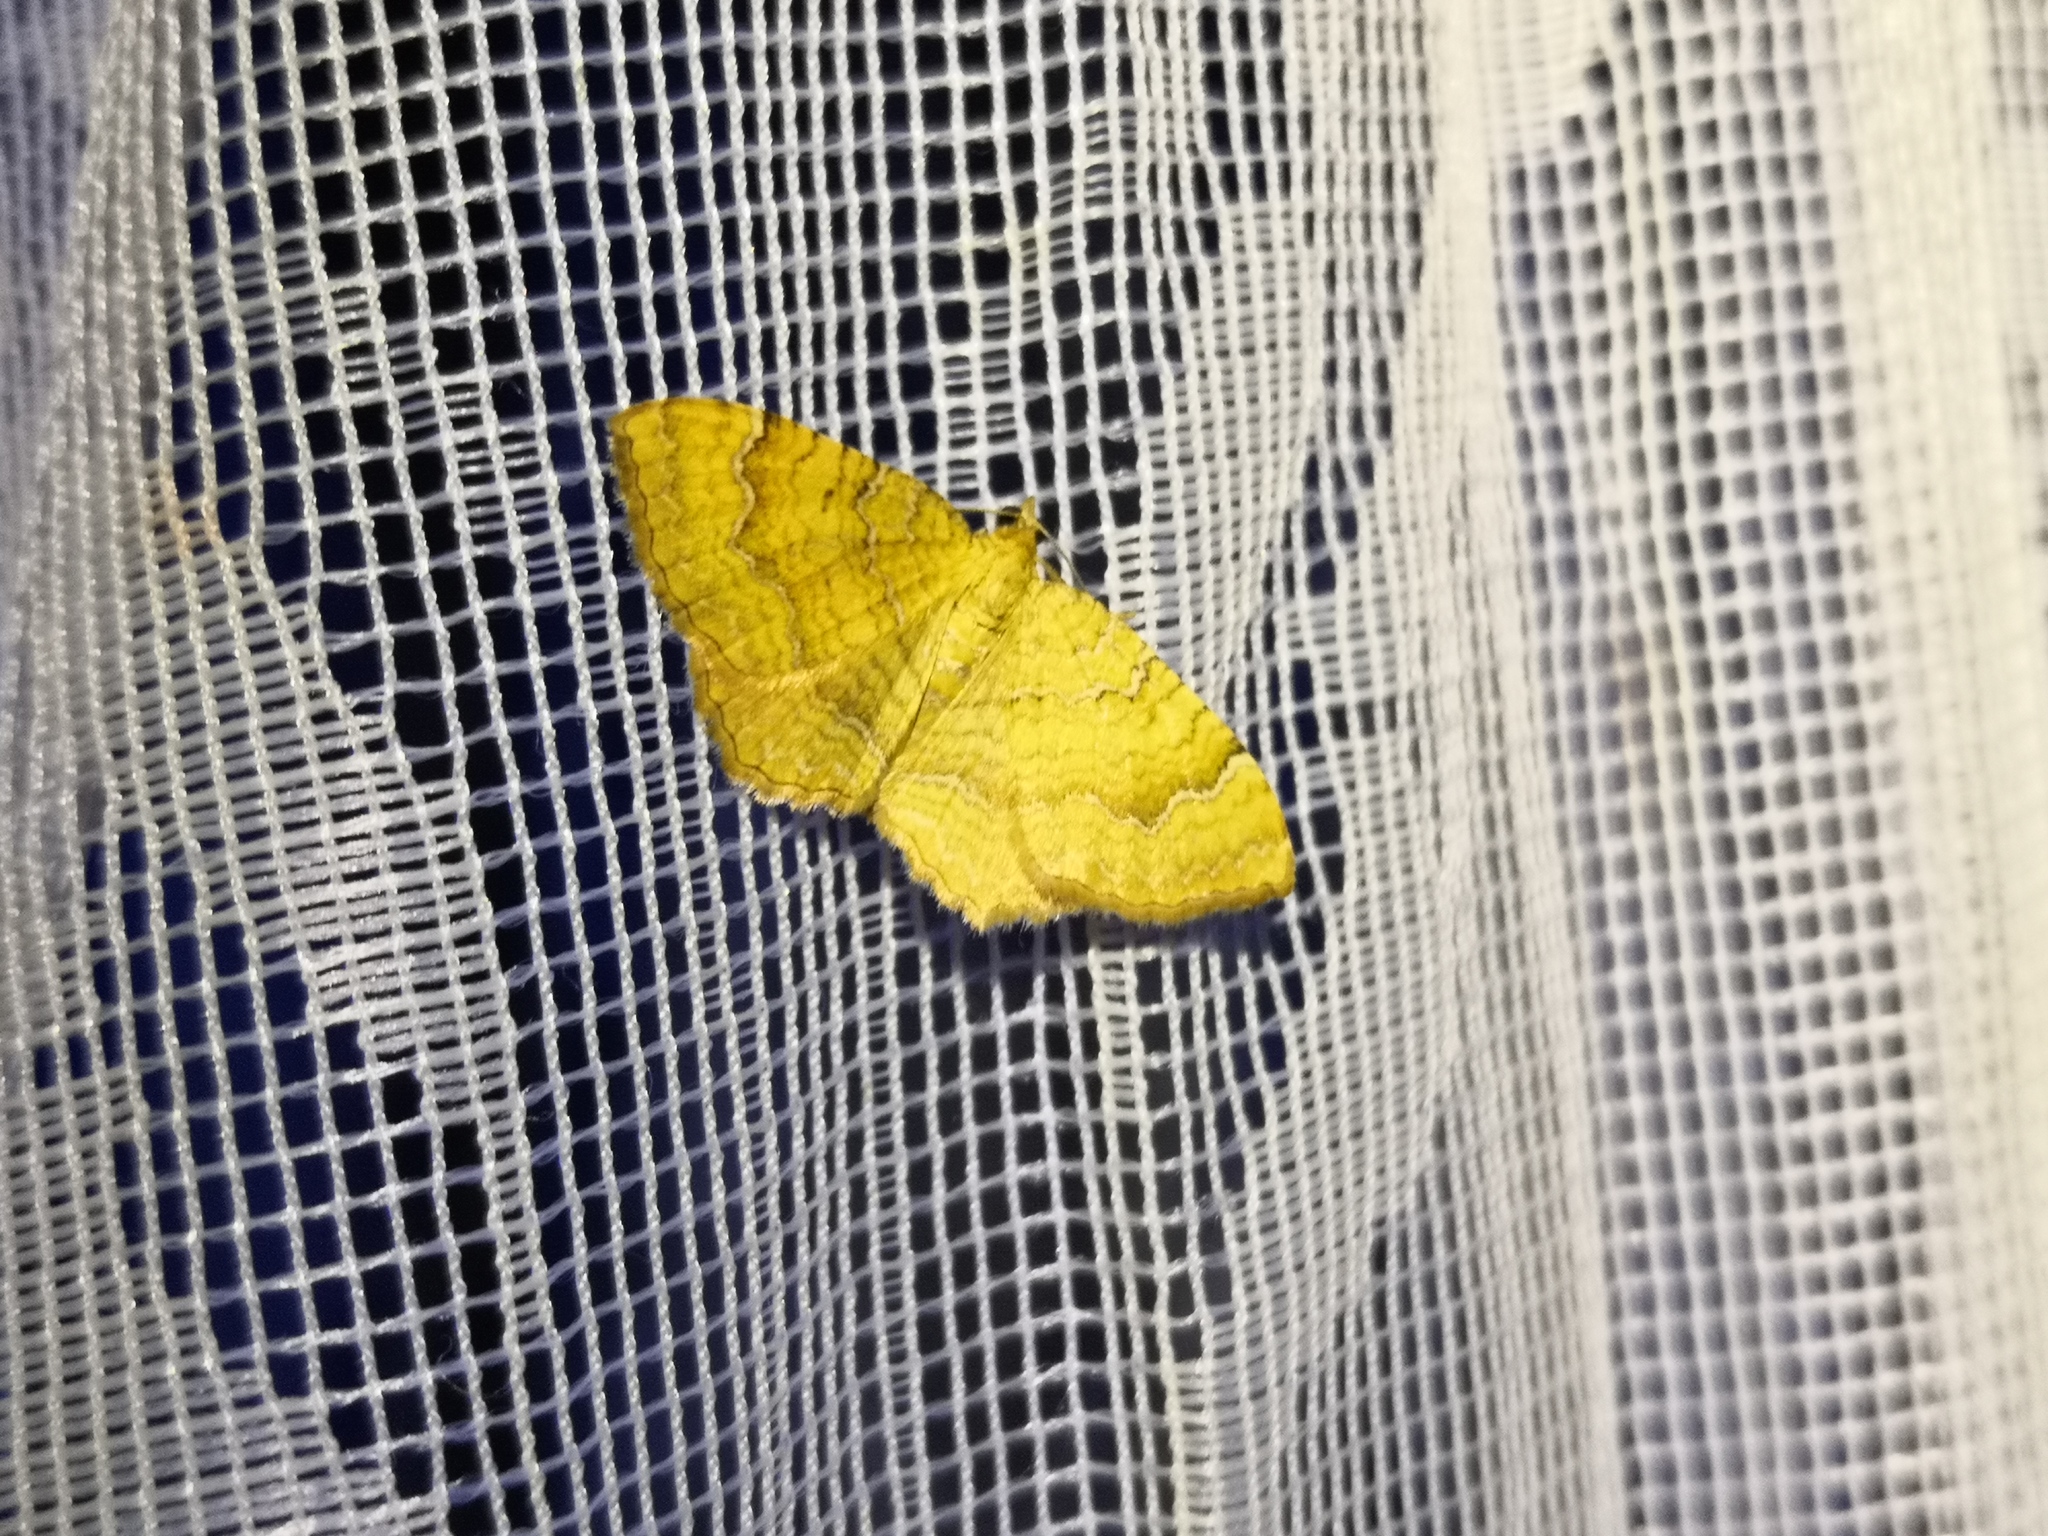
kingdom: Animalia
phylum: Arthropoda
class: Insecta
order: Lepidoptera
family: Geometridae
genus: Camptogramma
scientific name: Camptogramma bilineata
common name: Yellow shell
